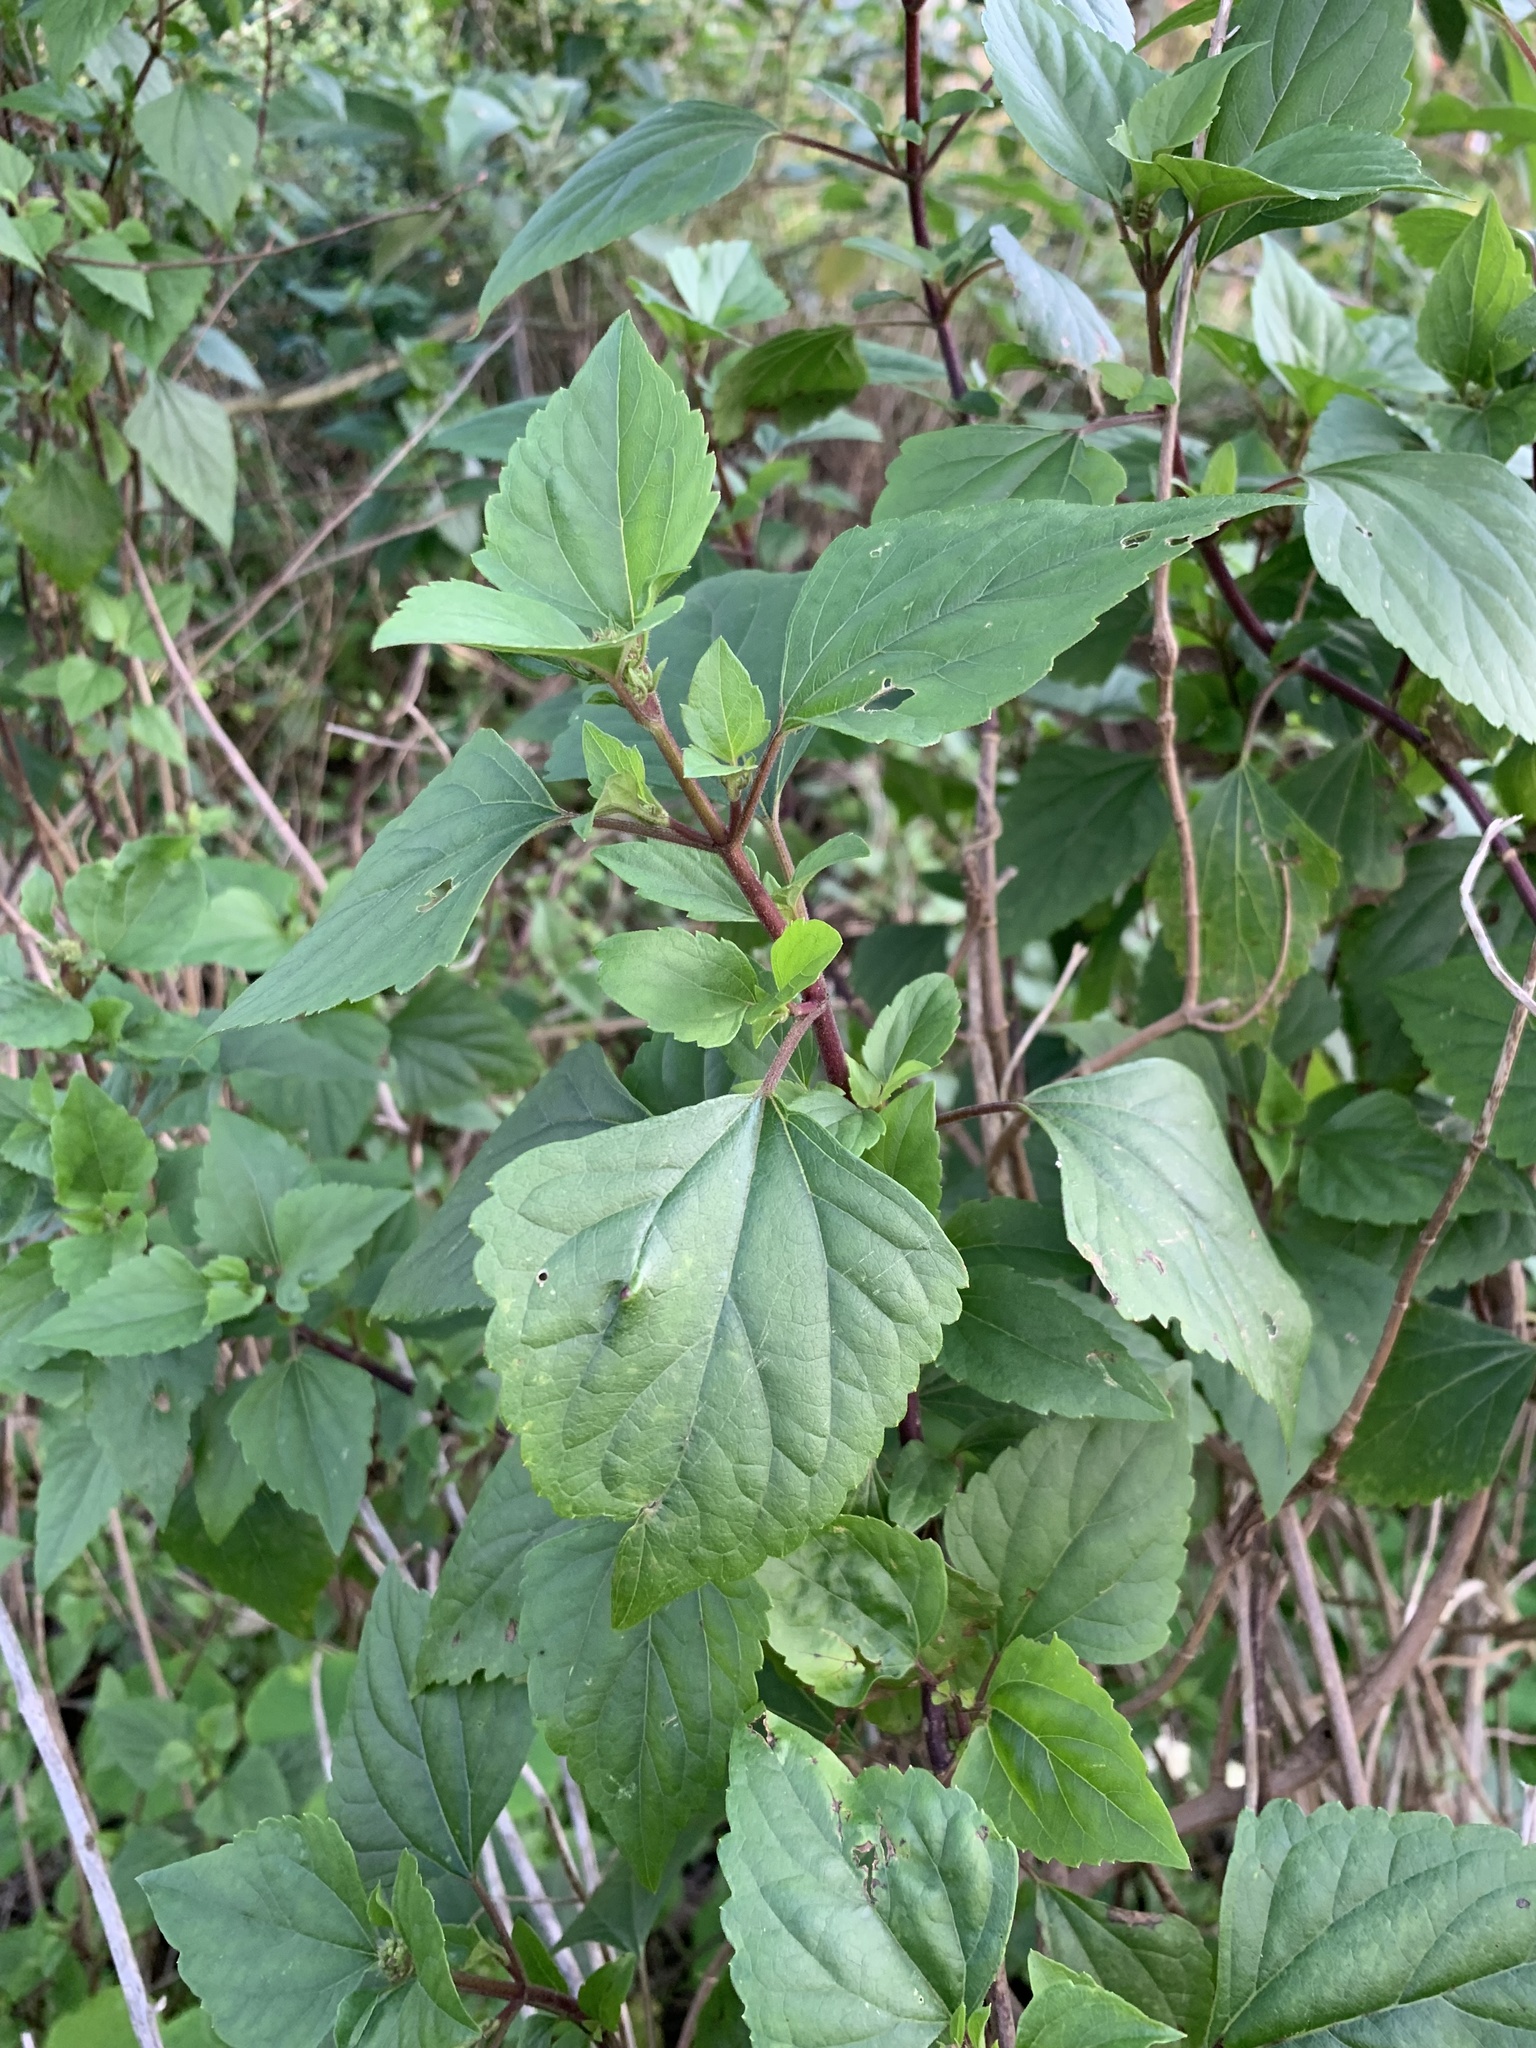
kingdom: Plantae
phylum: Tracheophyta
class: Magnoliopsida
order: Asterales
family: Asteraceae
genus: Ageratina
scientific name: Ageratina adenophora
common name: Sticky snakeroot
